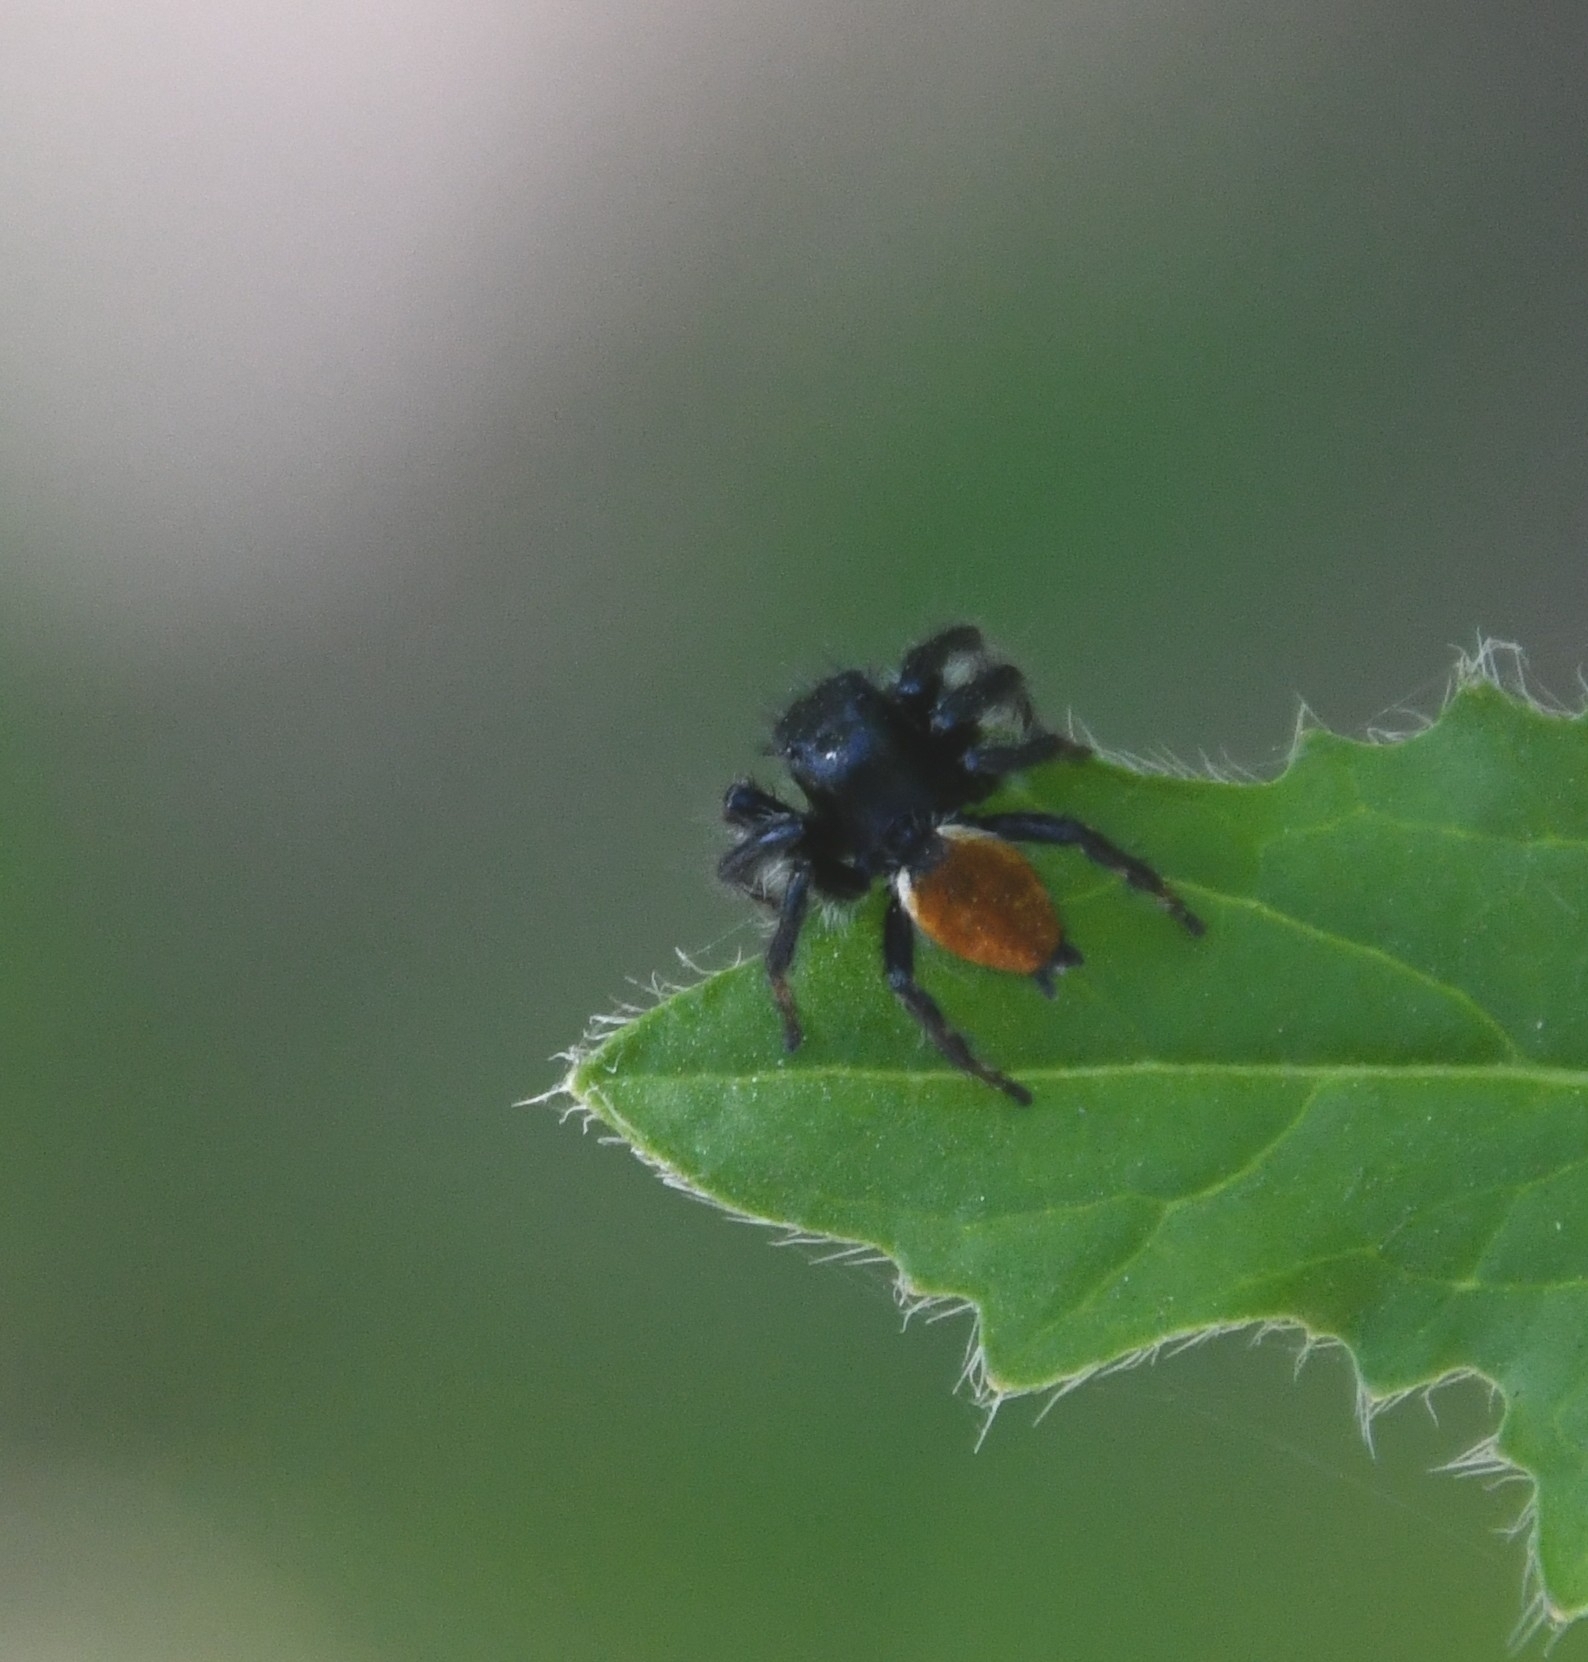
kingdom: Animalia
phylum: Arthropoda
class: Arachnida
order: Araneae
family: Salticidae
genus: Carrhotus
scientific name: Carrhotus xanthogramma
